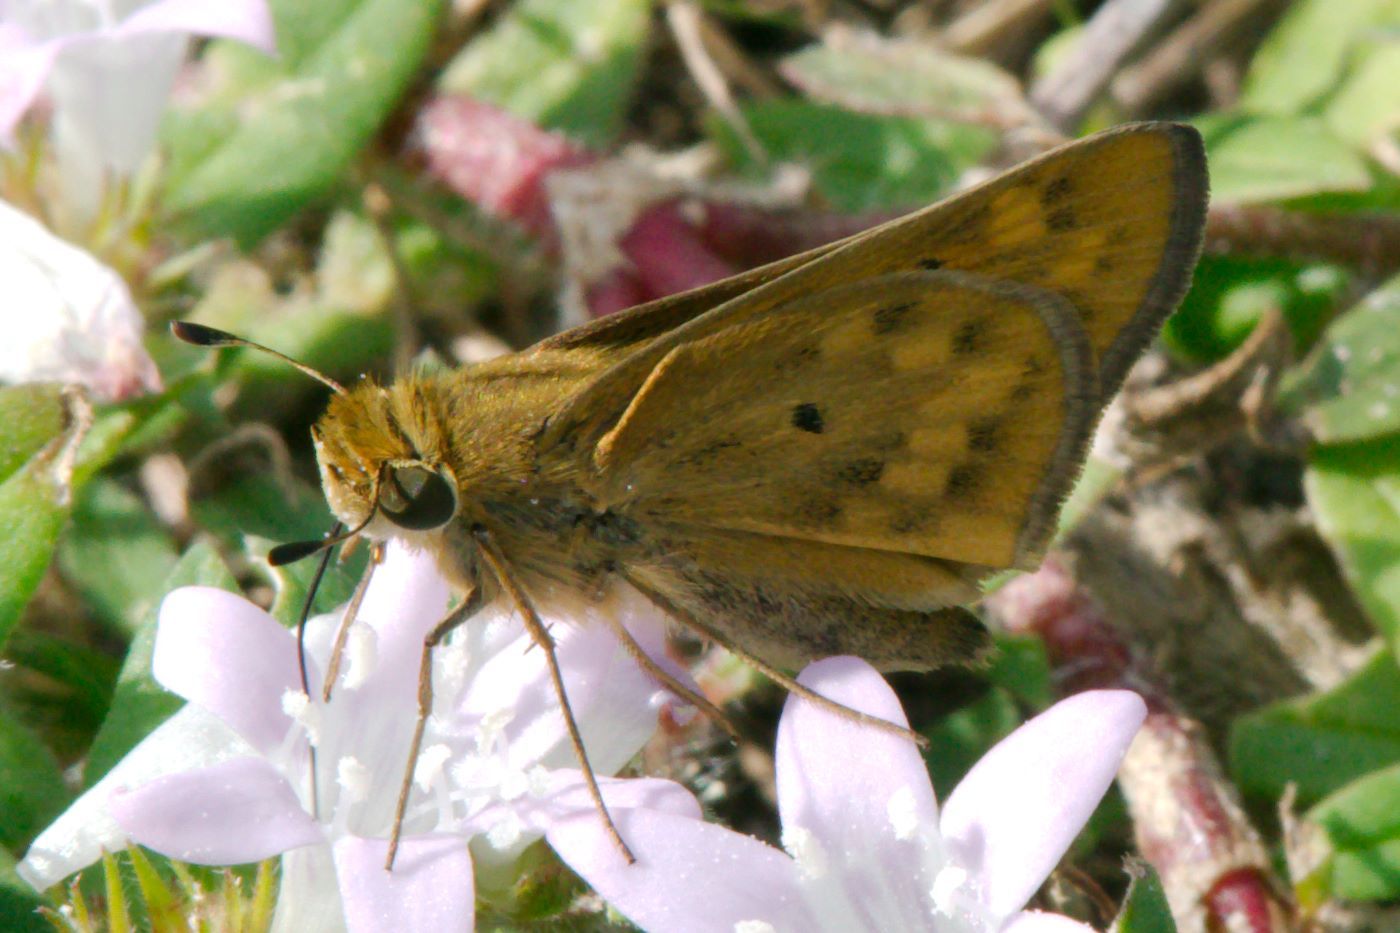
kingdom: Animalia
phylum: Arthropoda
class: Insecta
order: Lepidoptera
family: Hesperiidae
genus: Hylephila
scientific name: Hylephila phyleus
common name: Fiery skipper
